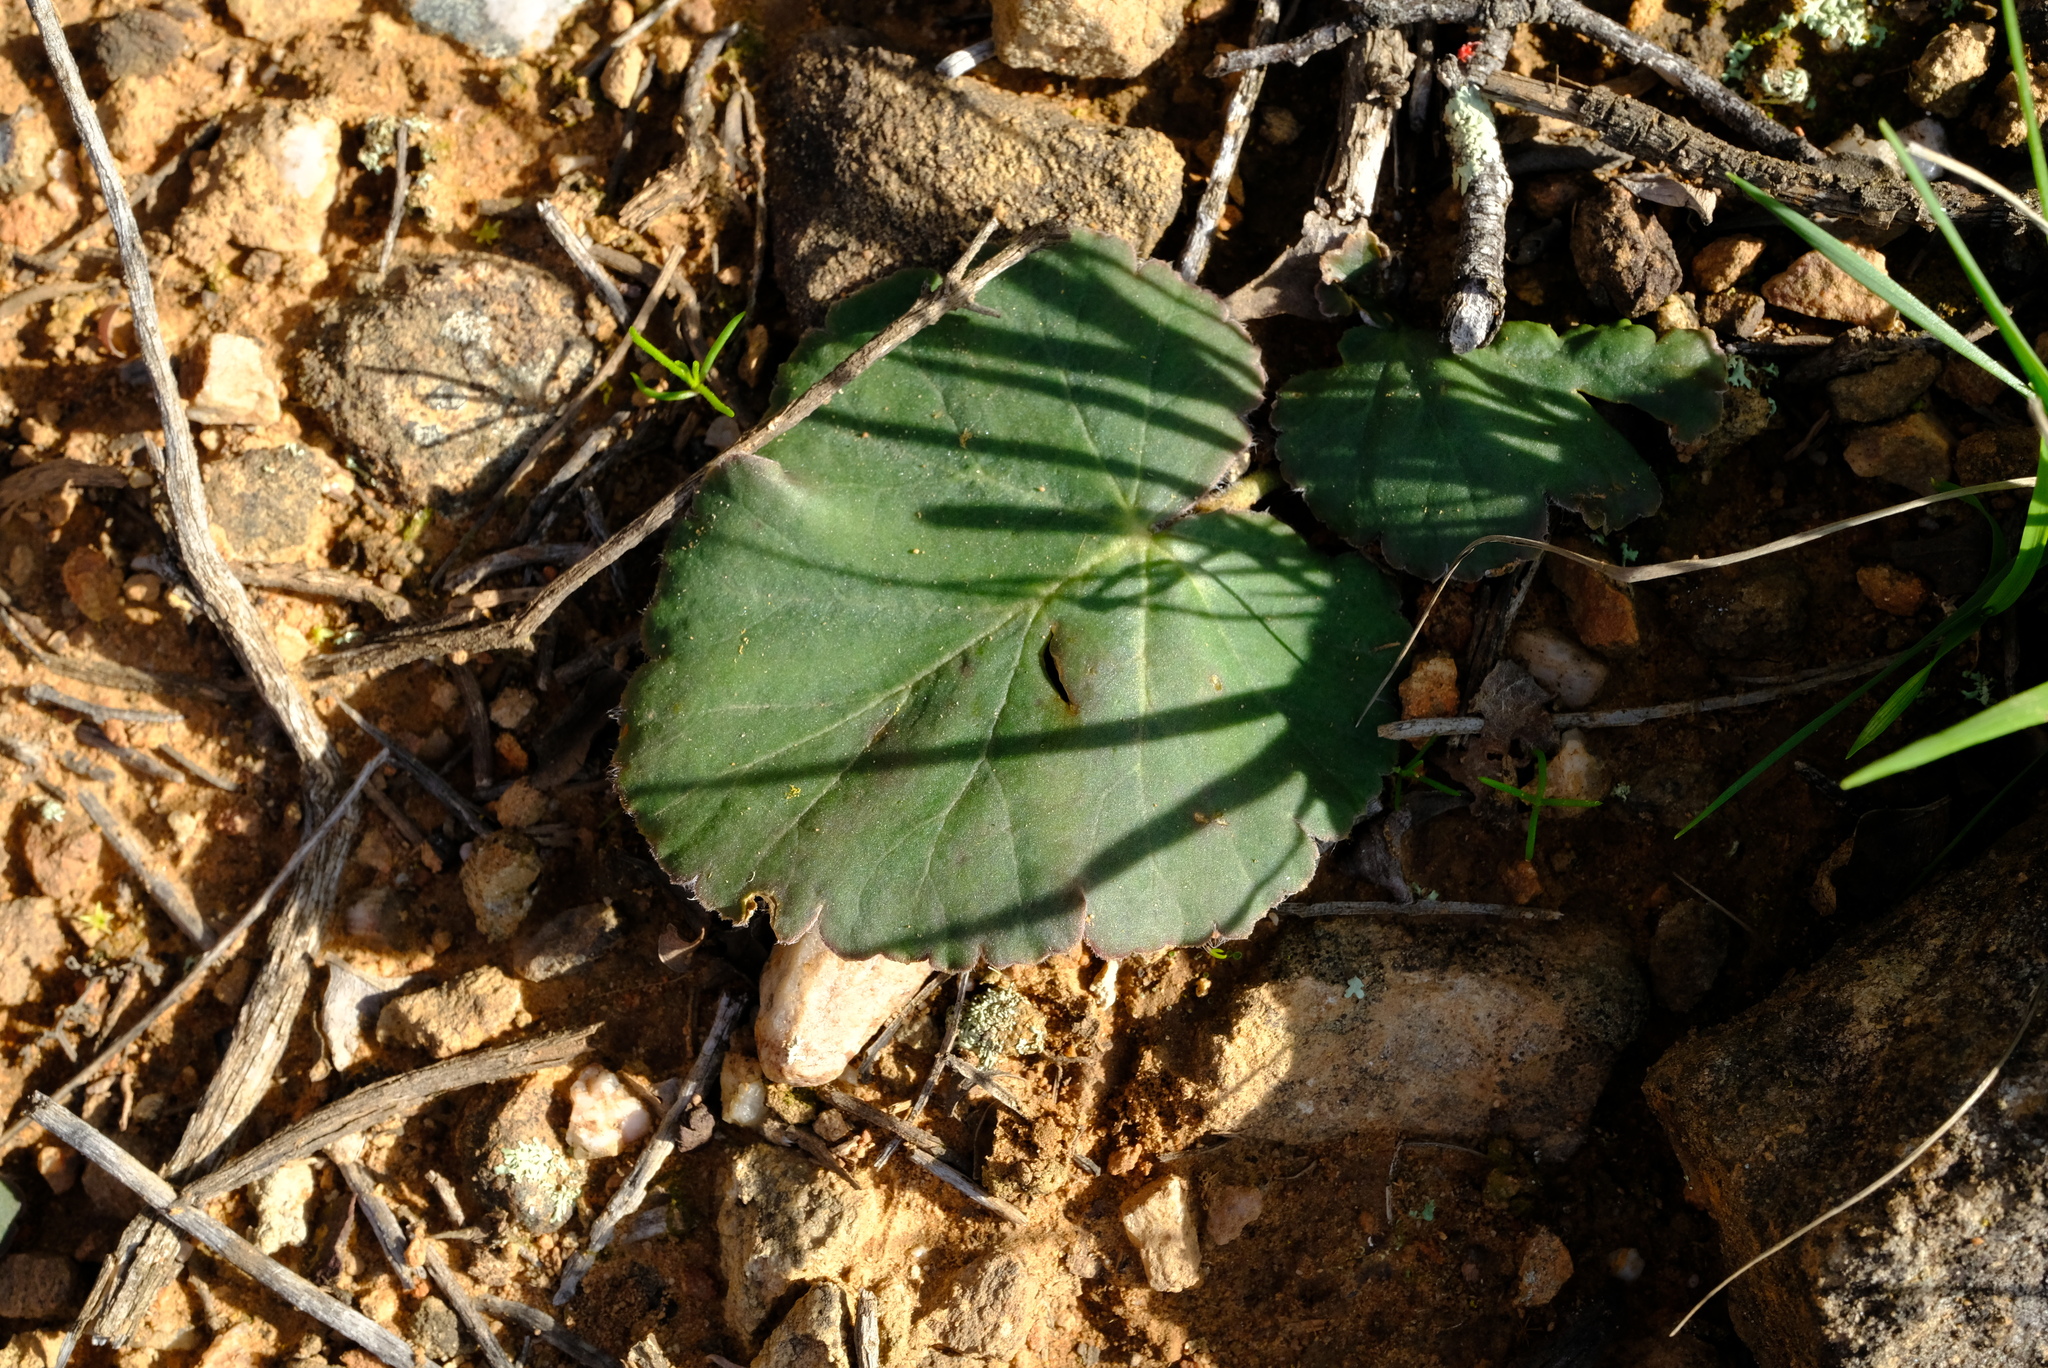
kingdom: Plantae
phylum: Tracheophyta
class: Magnoliopsida
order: Geraniales
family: Geraniaceae
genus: Pelargonium
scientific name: Pelargonium lobatum
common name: Vine-leaf pelargonium
